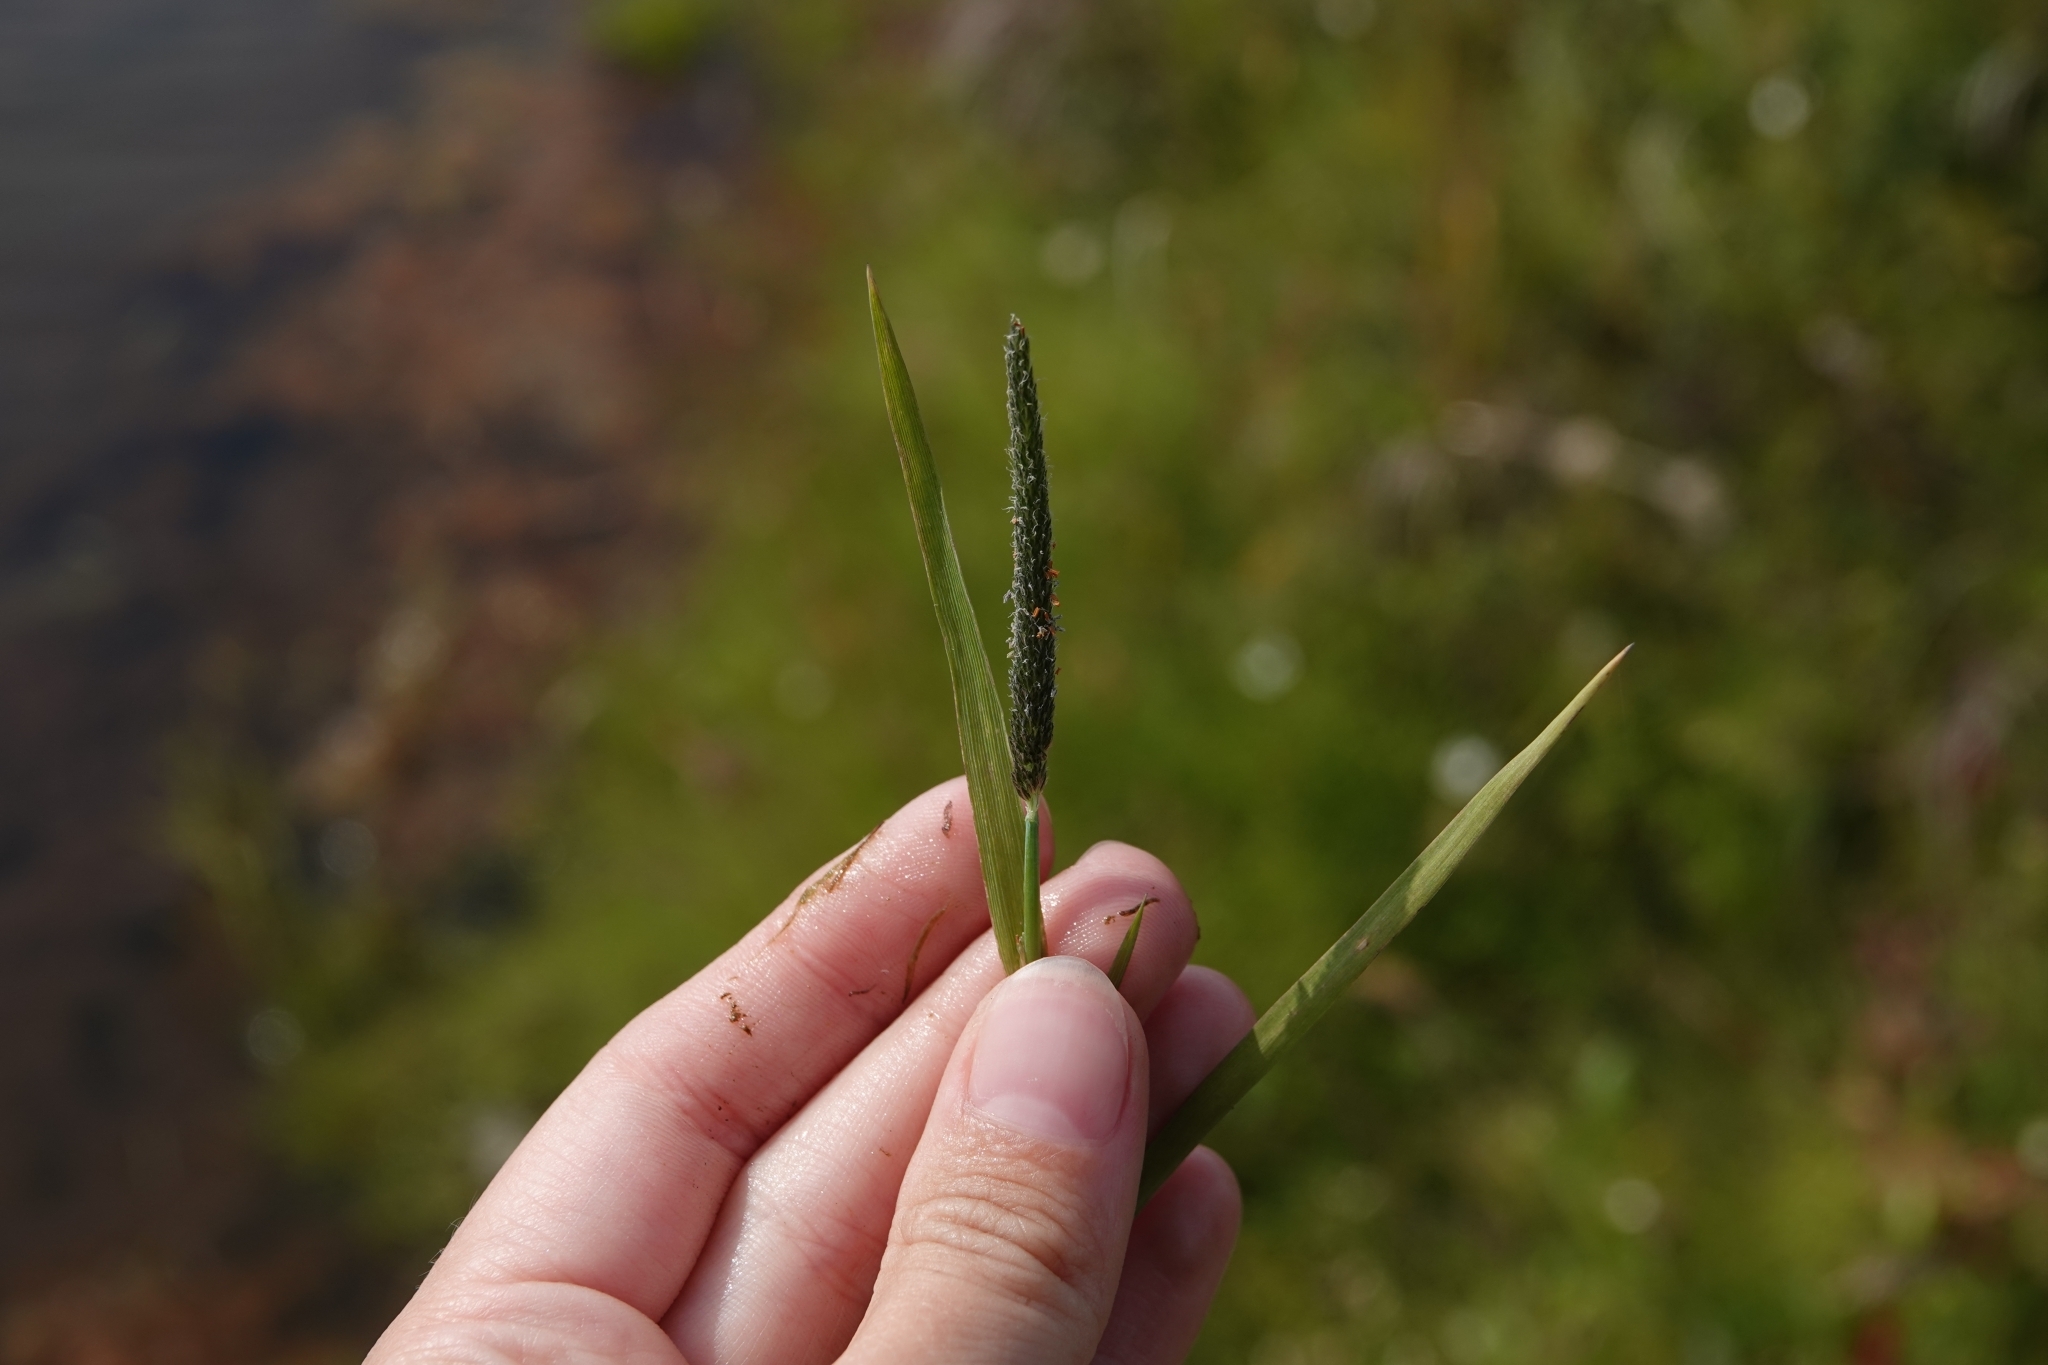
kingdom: Plantae
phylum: Tracheophyta
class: Liliopsida
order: Poales
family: Poaceae
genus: Alopecurus
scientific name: Alopecurus aequalis
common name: Orange foxtail
